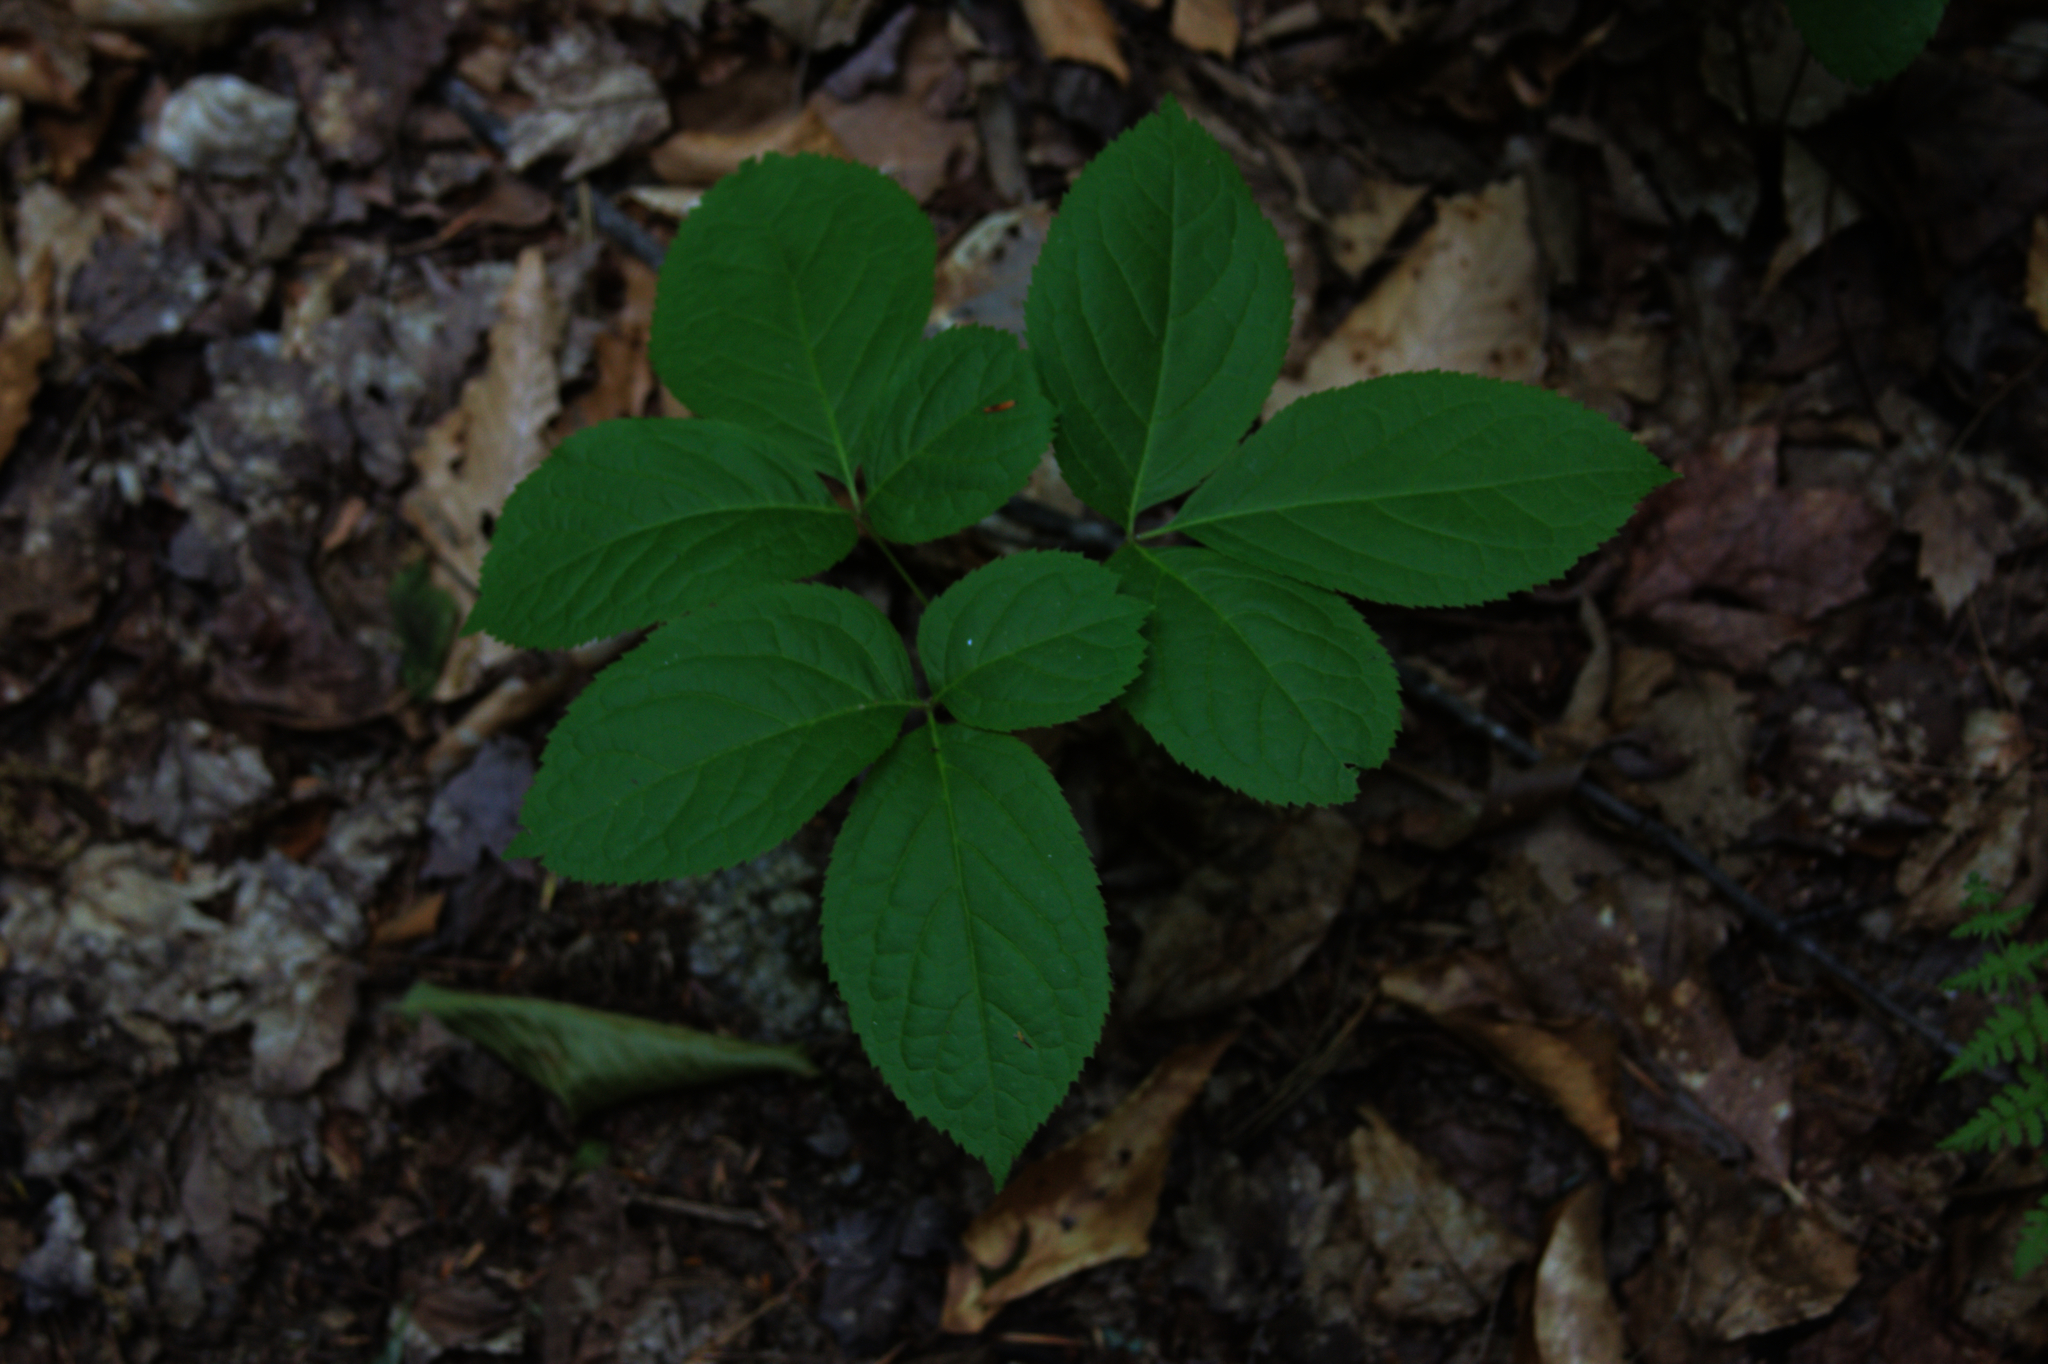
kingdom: Plantae
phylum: Tracheophyta
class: Magnoliopsida
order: Apiales
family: Araliaceae
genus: Aralia
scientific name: Aralia nudicaulis
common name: Wild sarsaparilla
